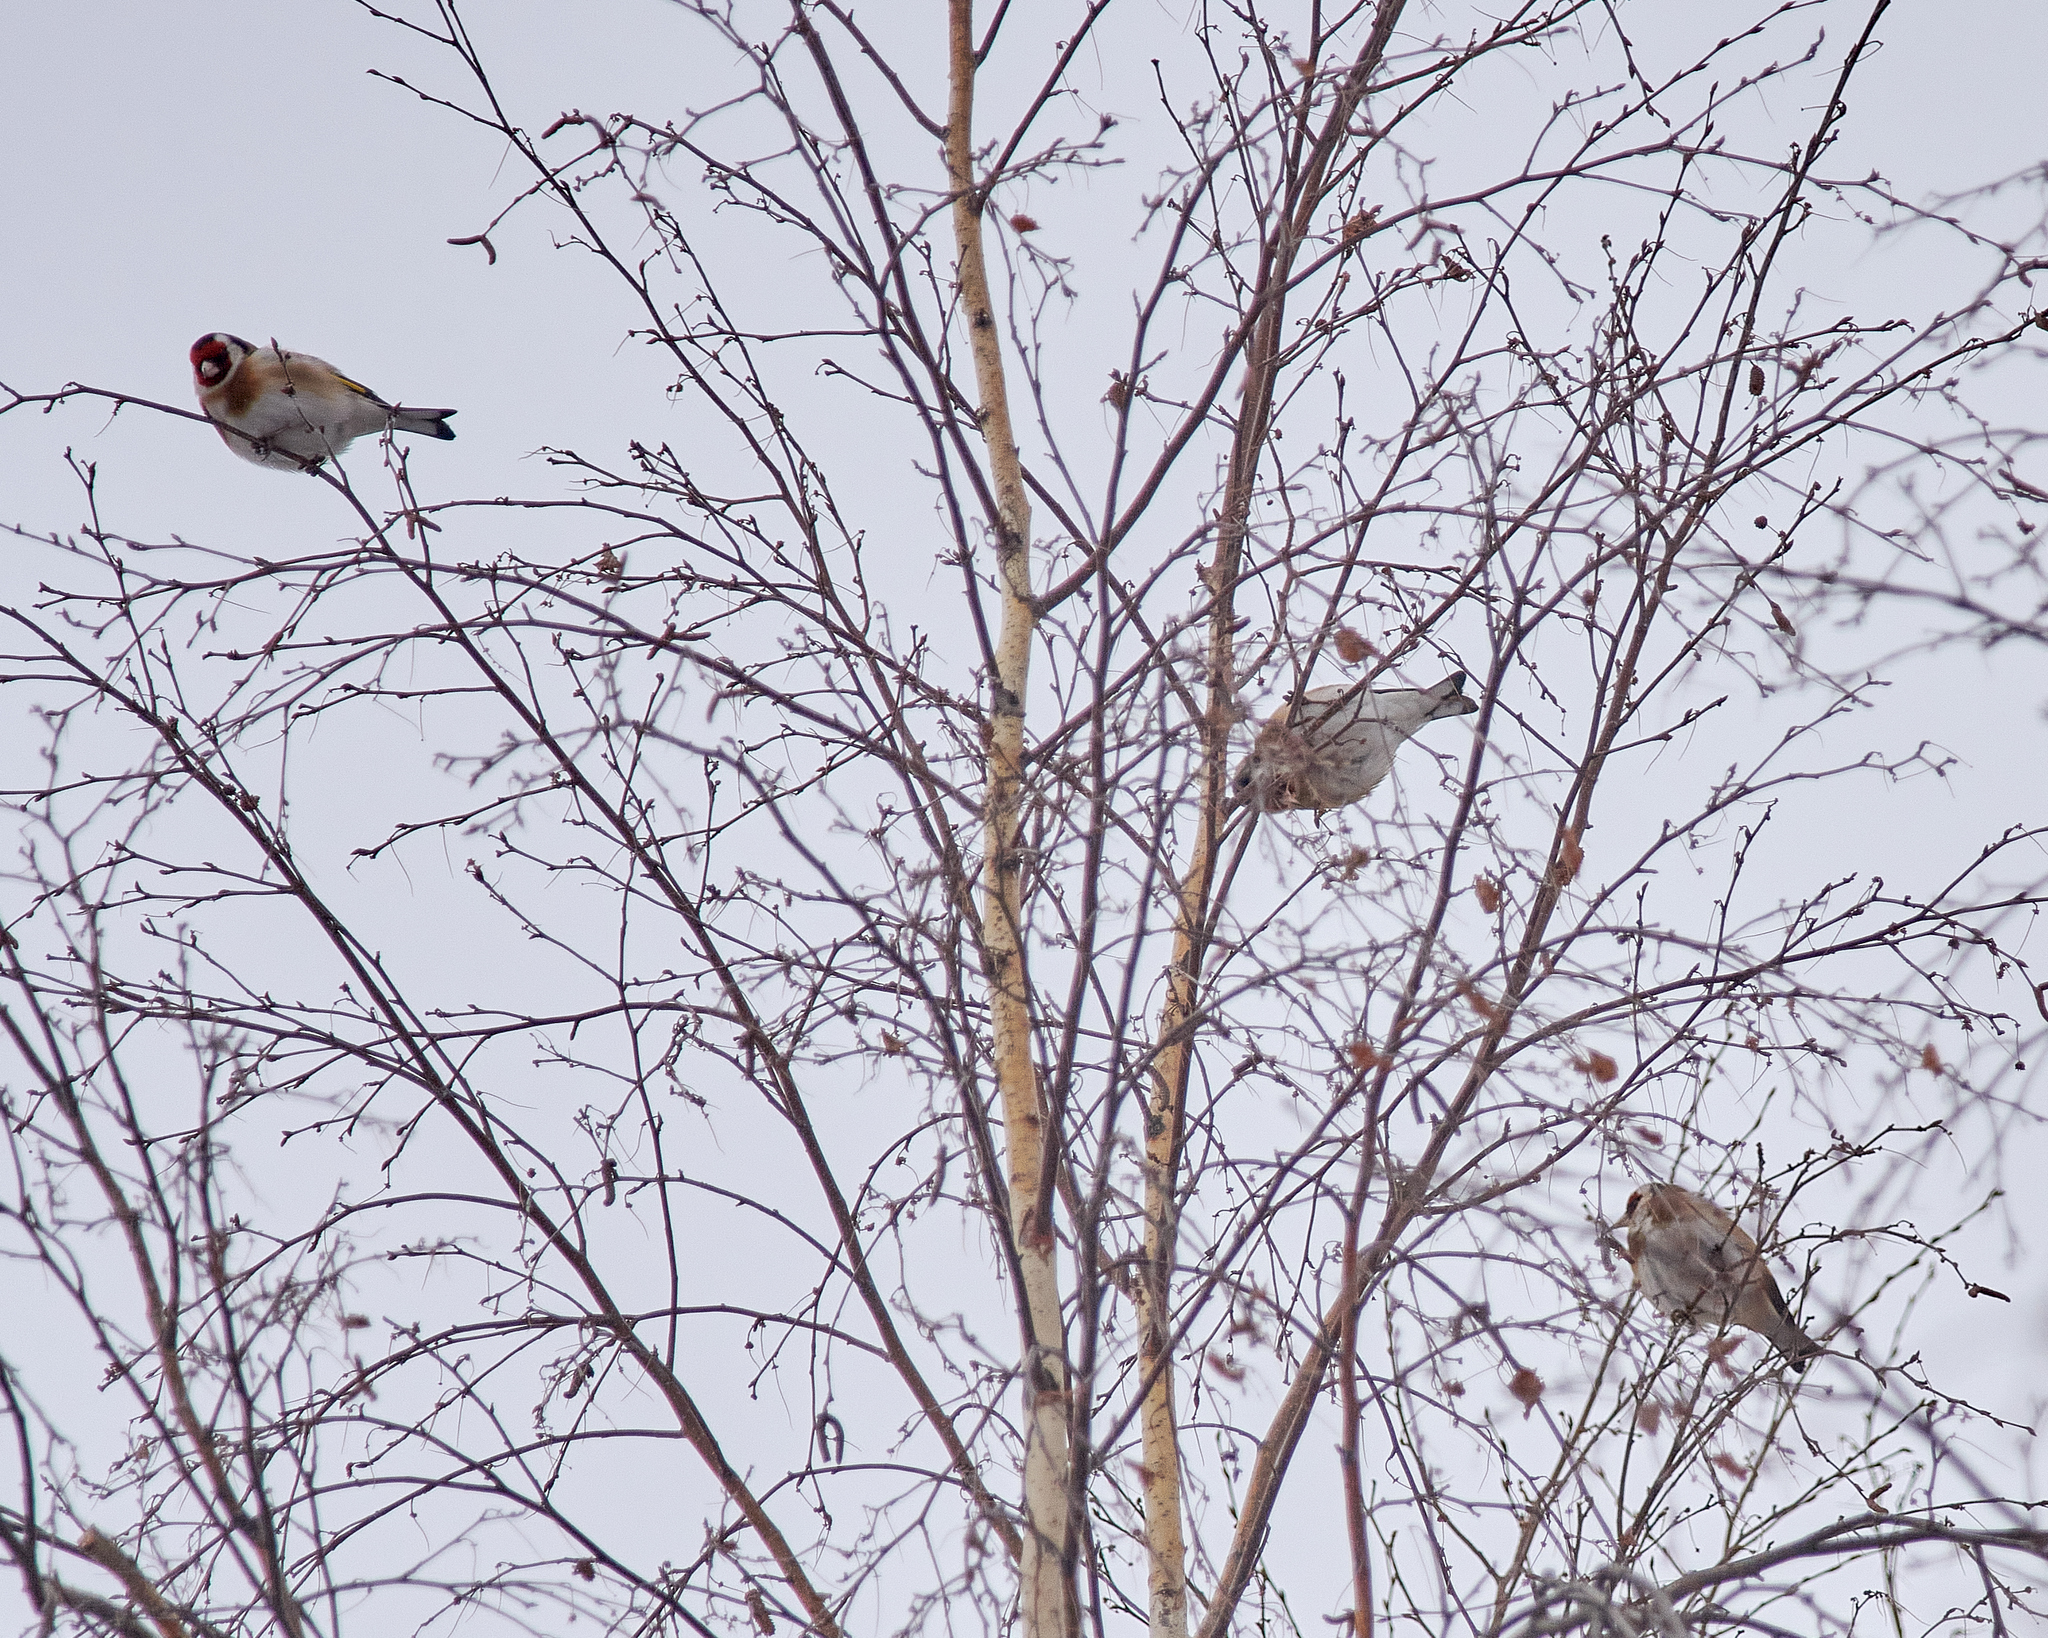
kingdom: Animalia
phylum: Chordata
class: Aves
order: Passeriformes
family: Fringillidae
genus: Carduelis
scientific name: Carduelis carduelis
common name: European goldfinch
